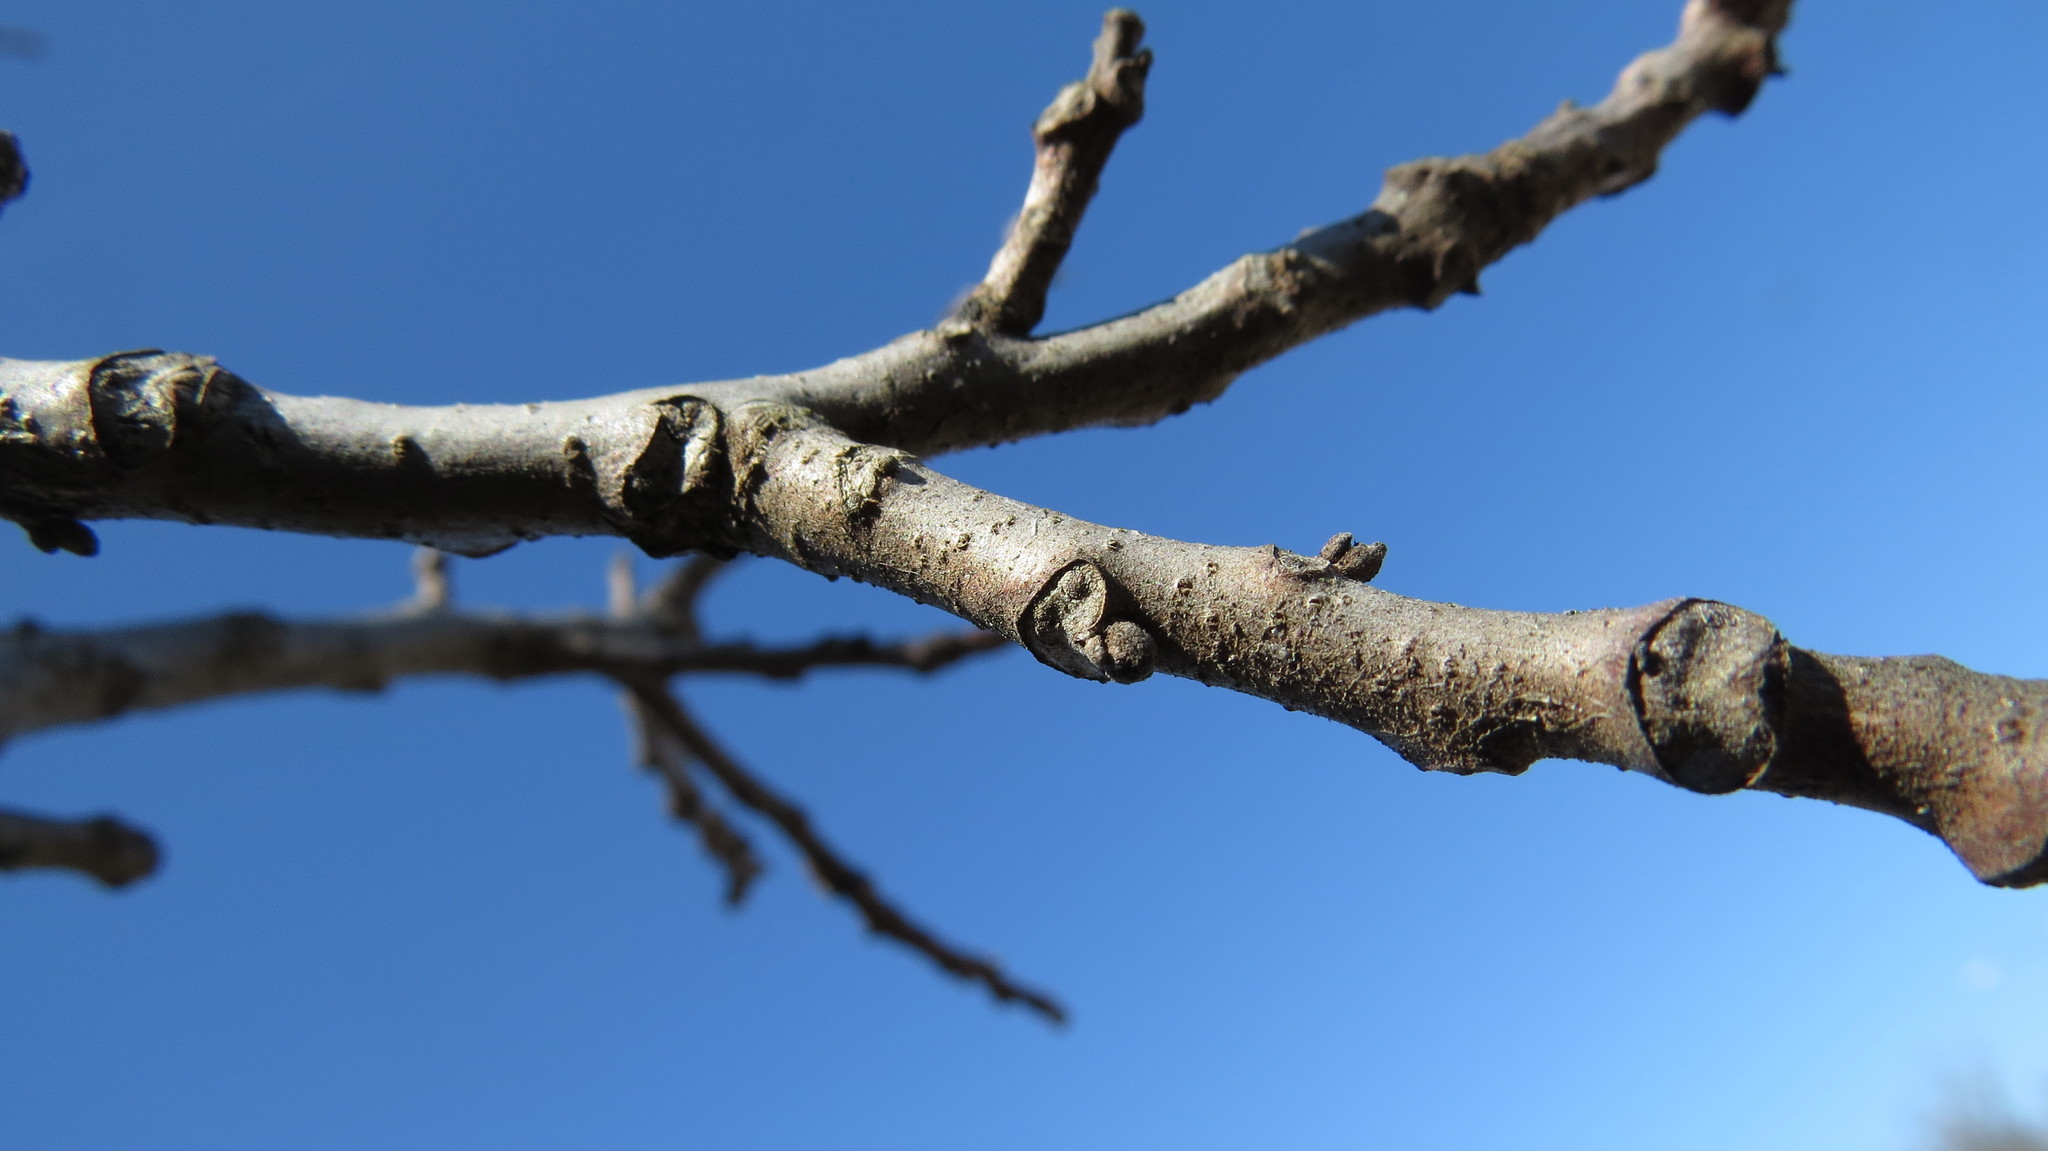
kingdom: Plantae
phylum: Tracheophyta
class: Magnoliopsida
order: Fagales
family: Juglandaceae
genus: Juglans
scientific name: Juglans nigra
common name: Black walnut
